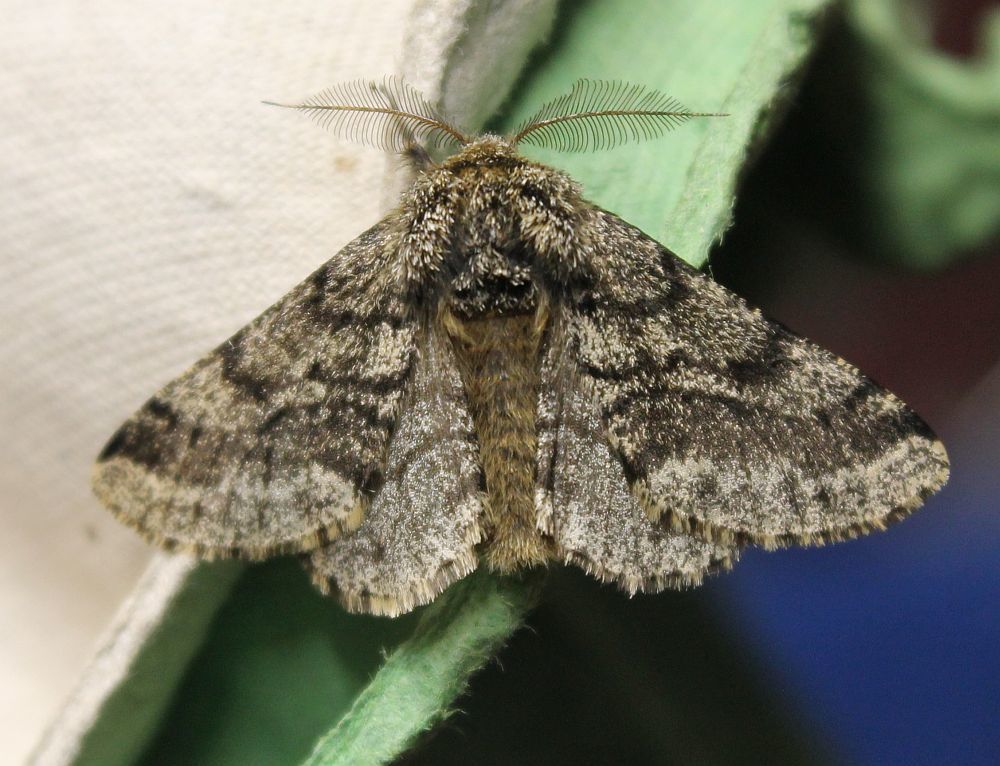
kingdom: Animalia
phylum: Arthropoda
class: Insecta
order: Lepidoptera
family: Geometridae
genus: Lycia
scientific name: Lycia hirtaria
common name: Brindled beauty
